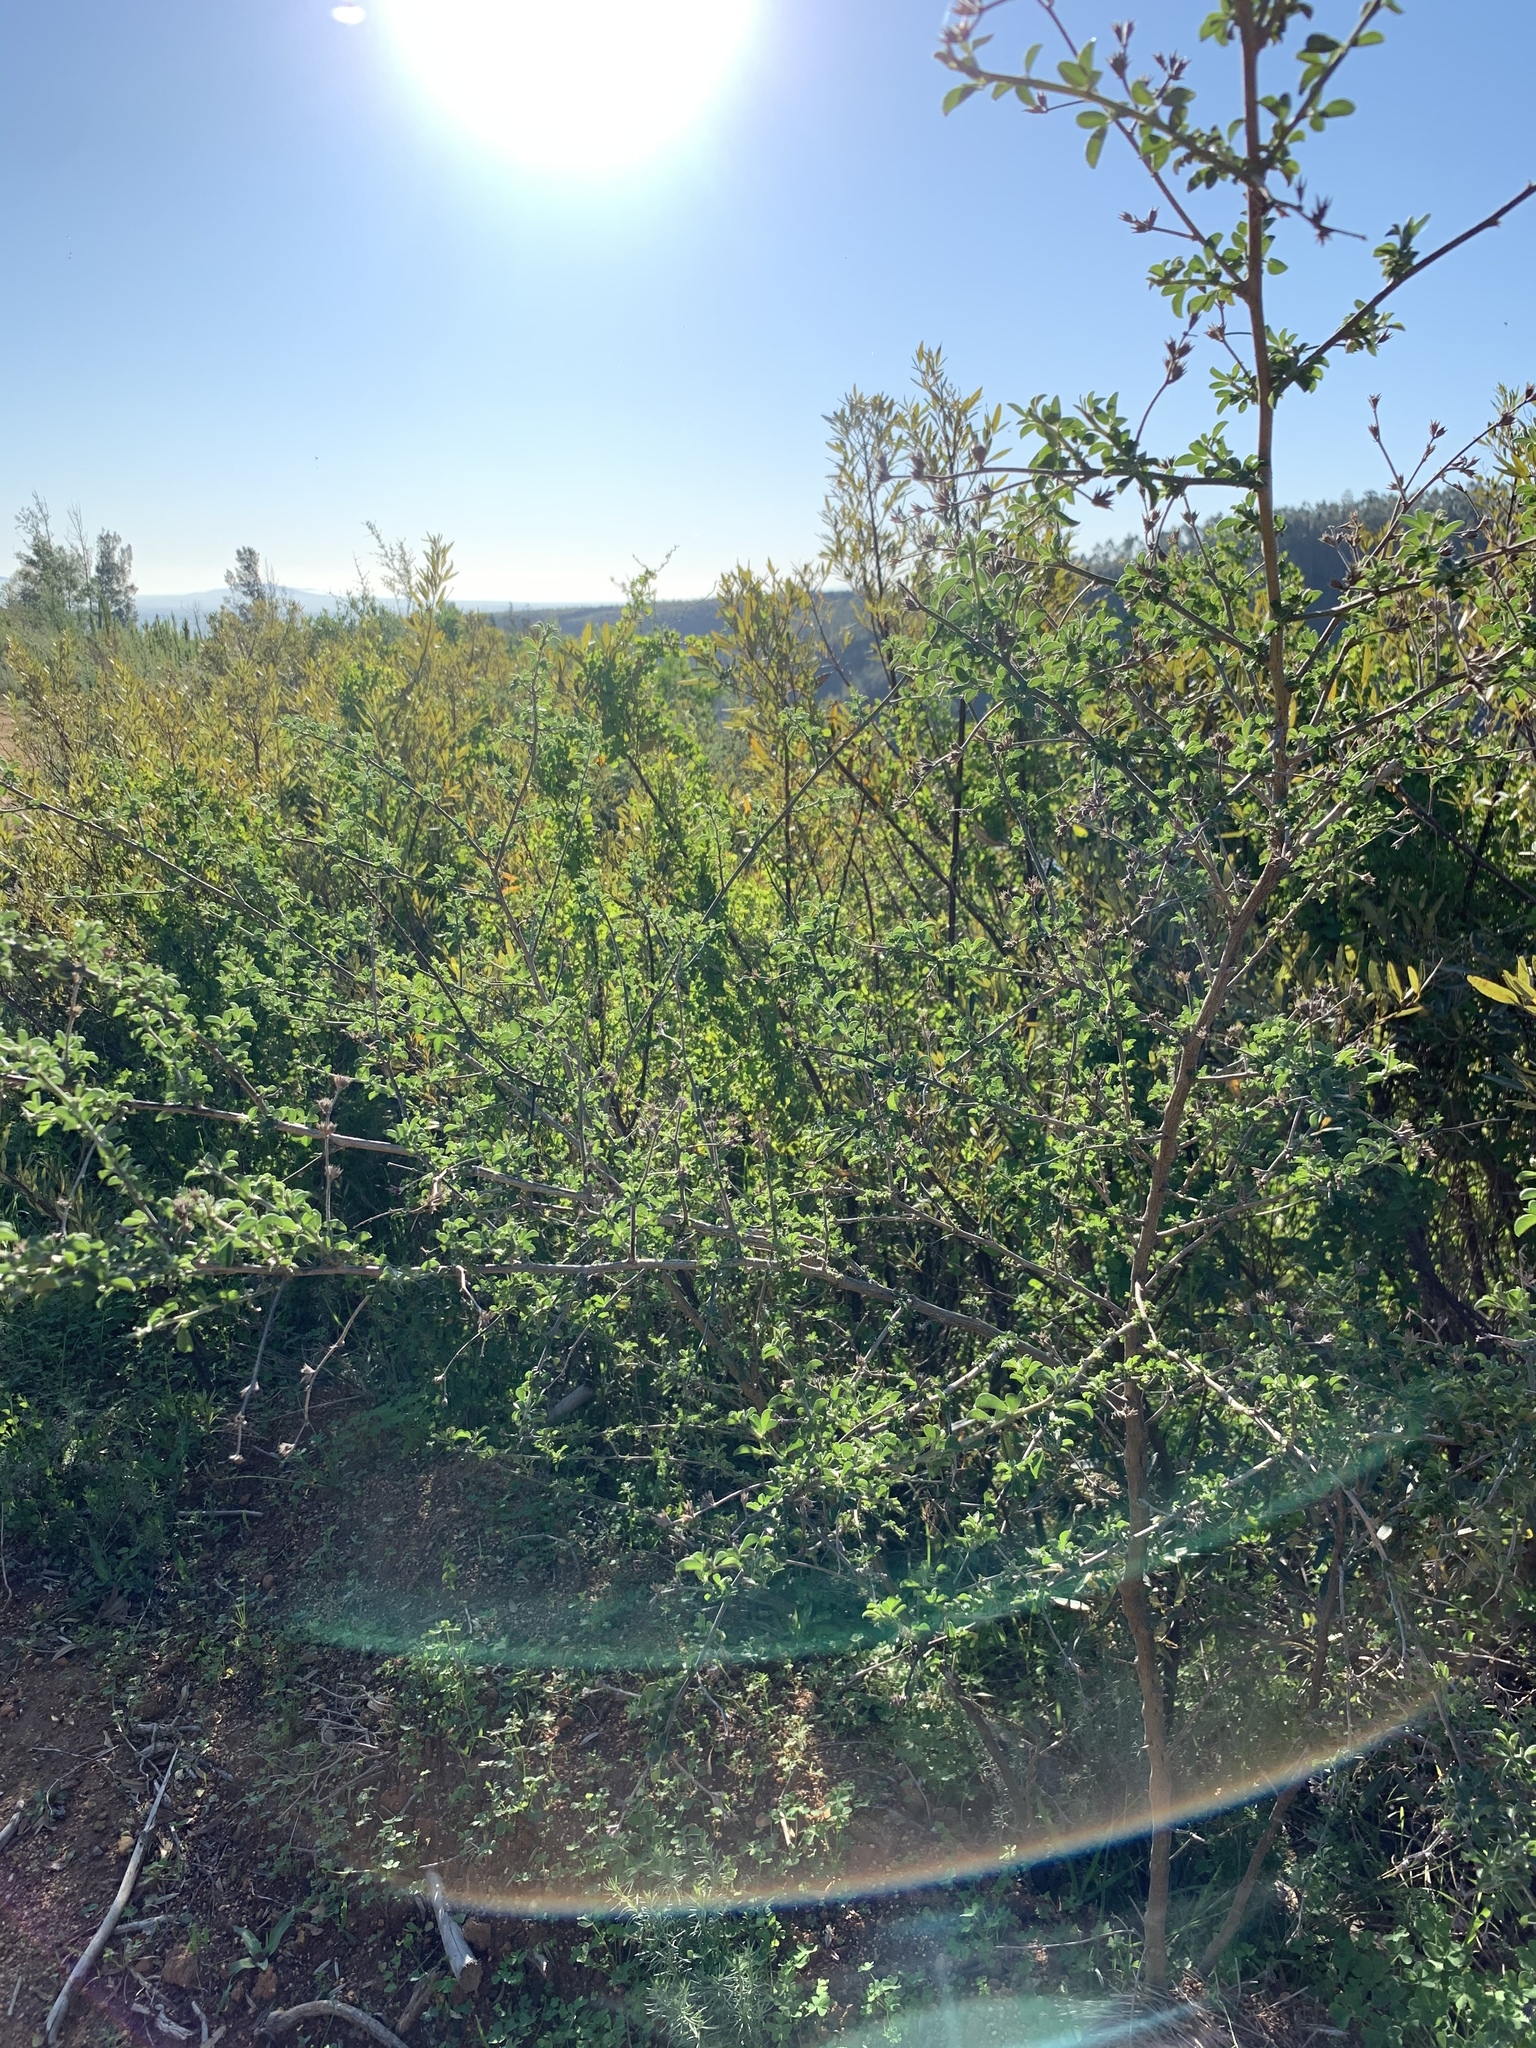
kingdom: Plantae
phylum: Tracheophyta
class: Magnoliopsida
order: Fabales
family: Fabaceae
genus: Psoralea
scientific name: Psoralea hirta
